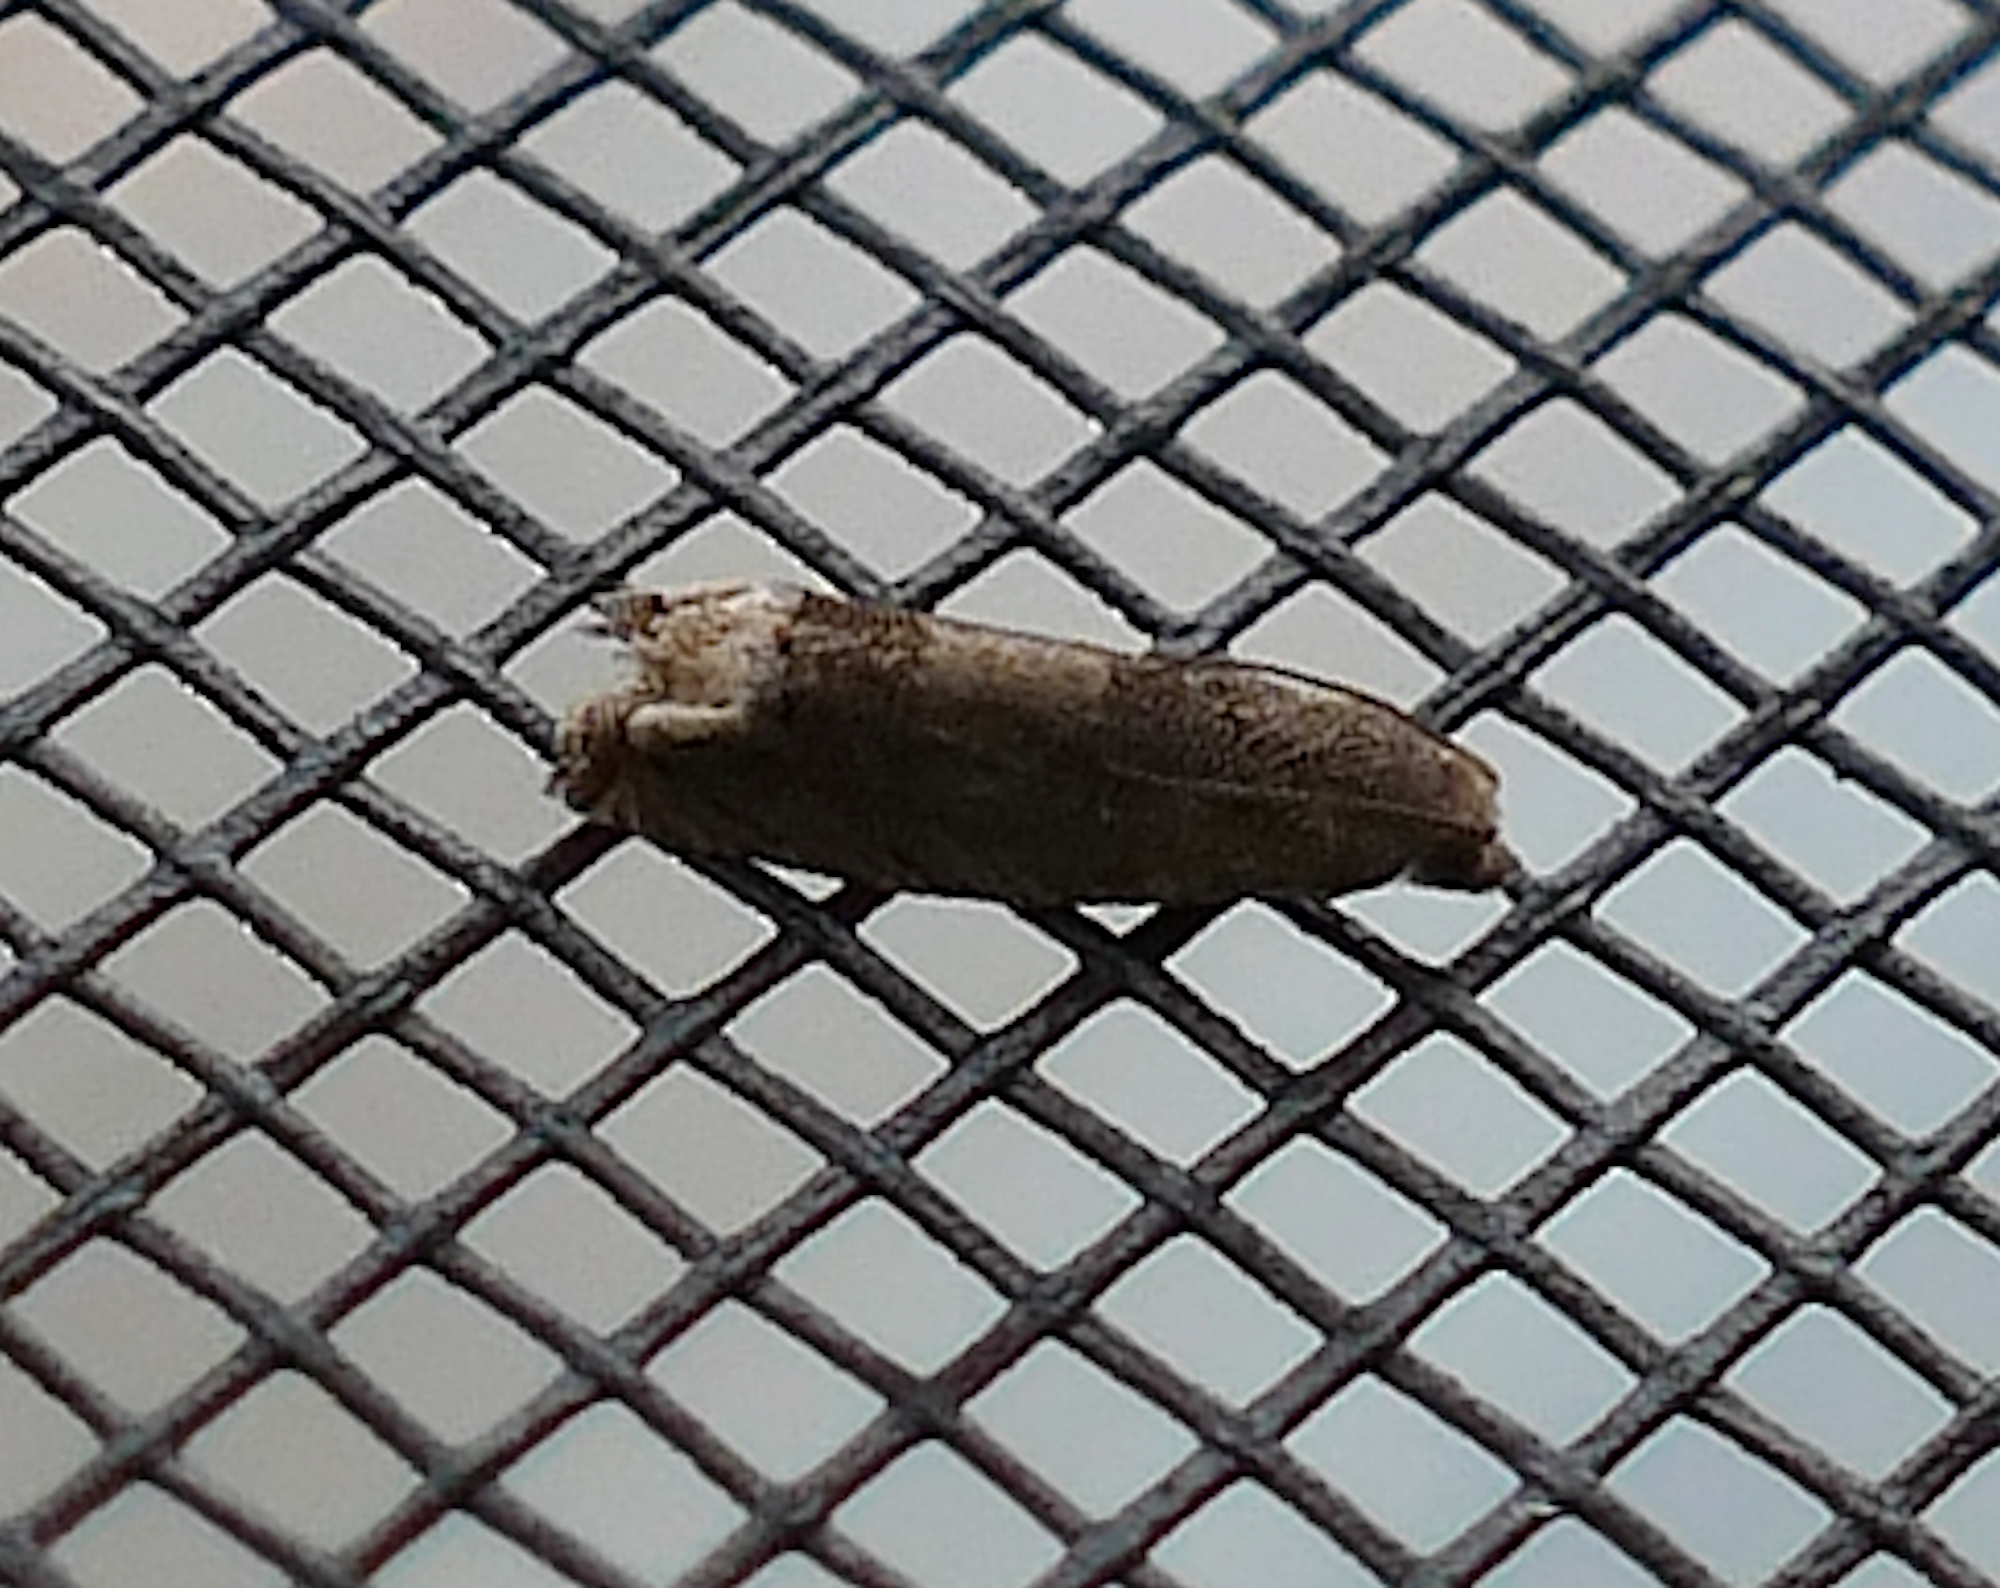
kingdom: Animalia
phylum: Arthropoda
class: Insecta
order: Lepidoptera
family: Tortricidae
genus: Epiblema
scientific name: Epiblema strenuana
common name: Ragweed borer moth
